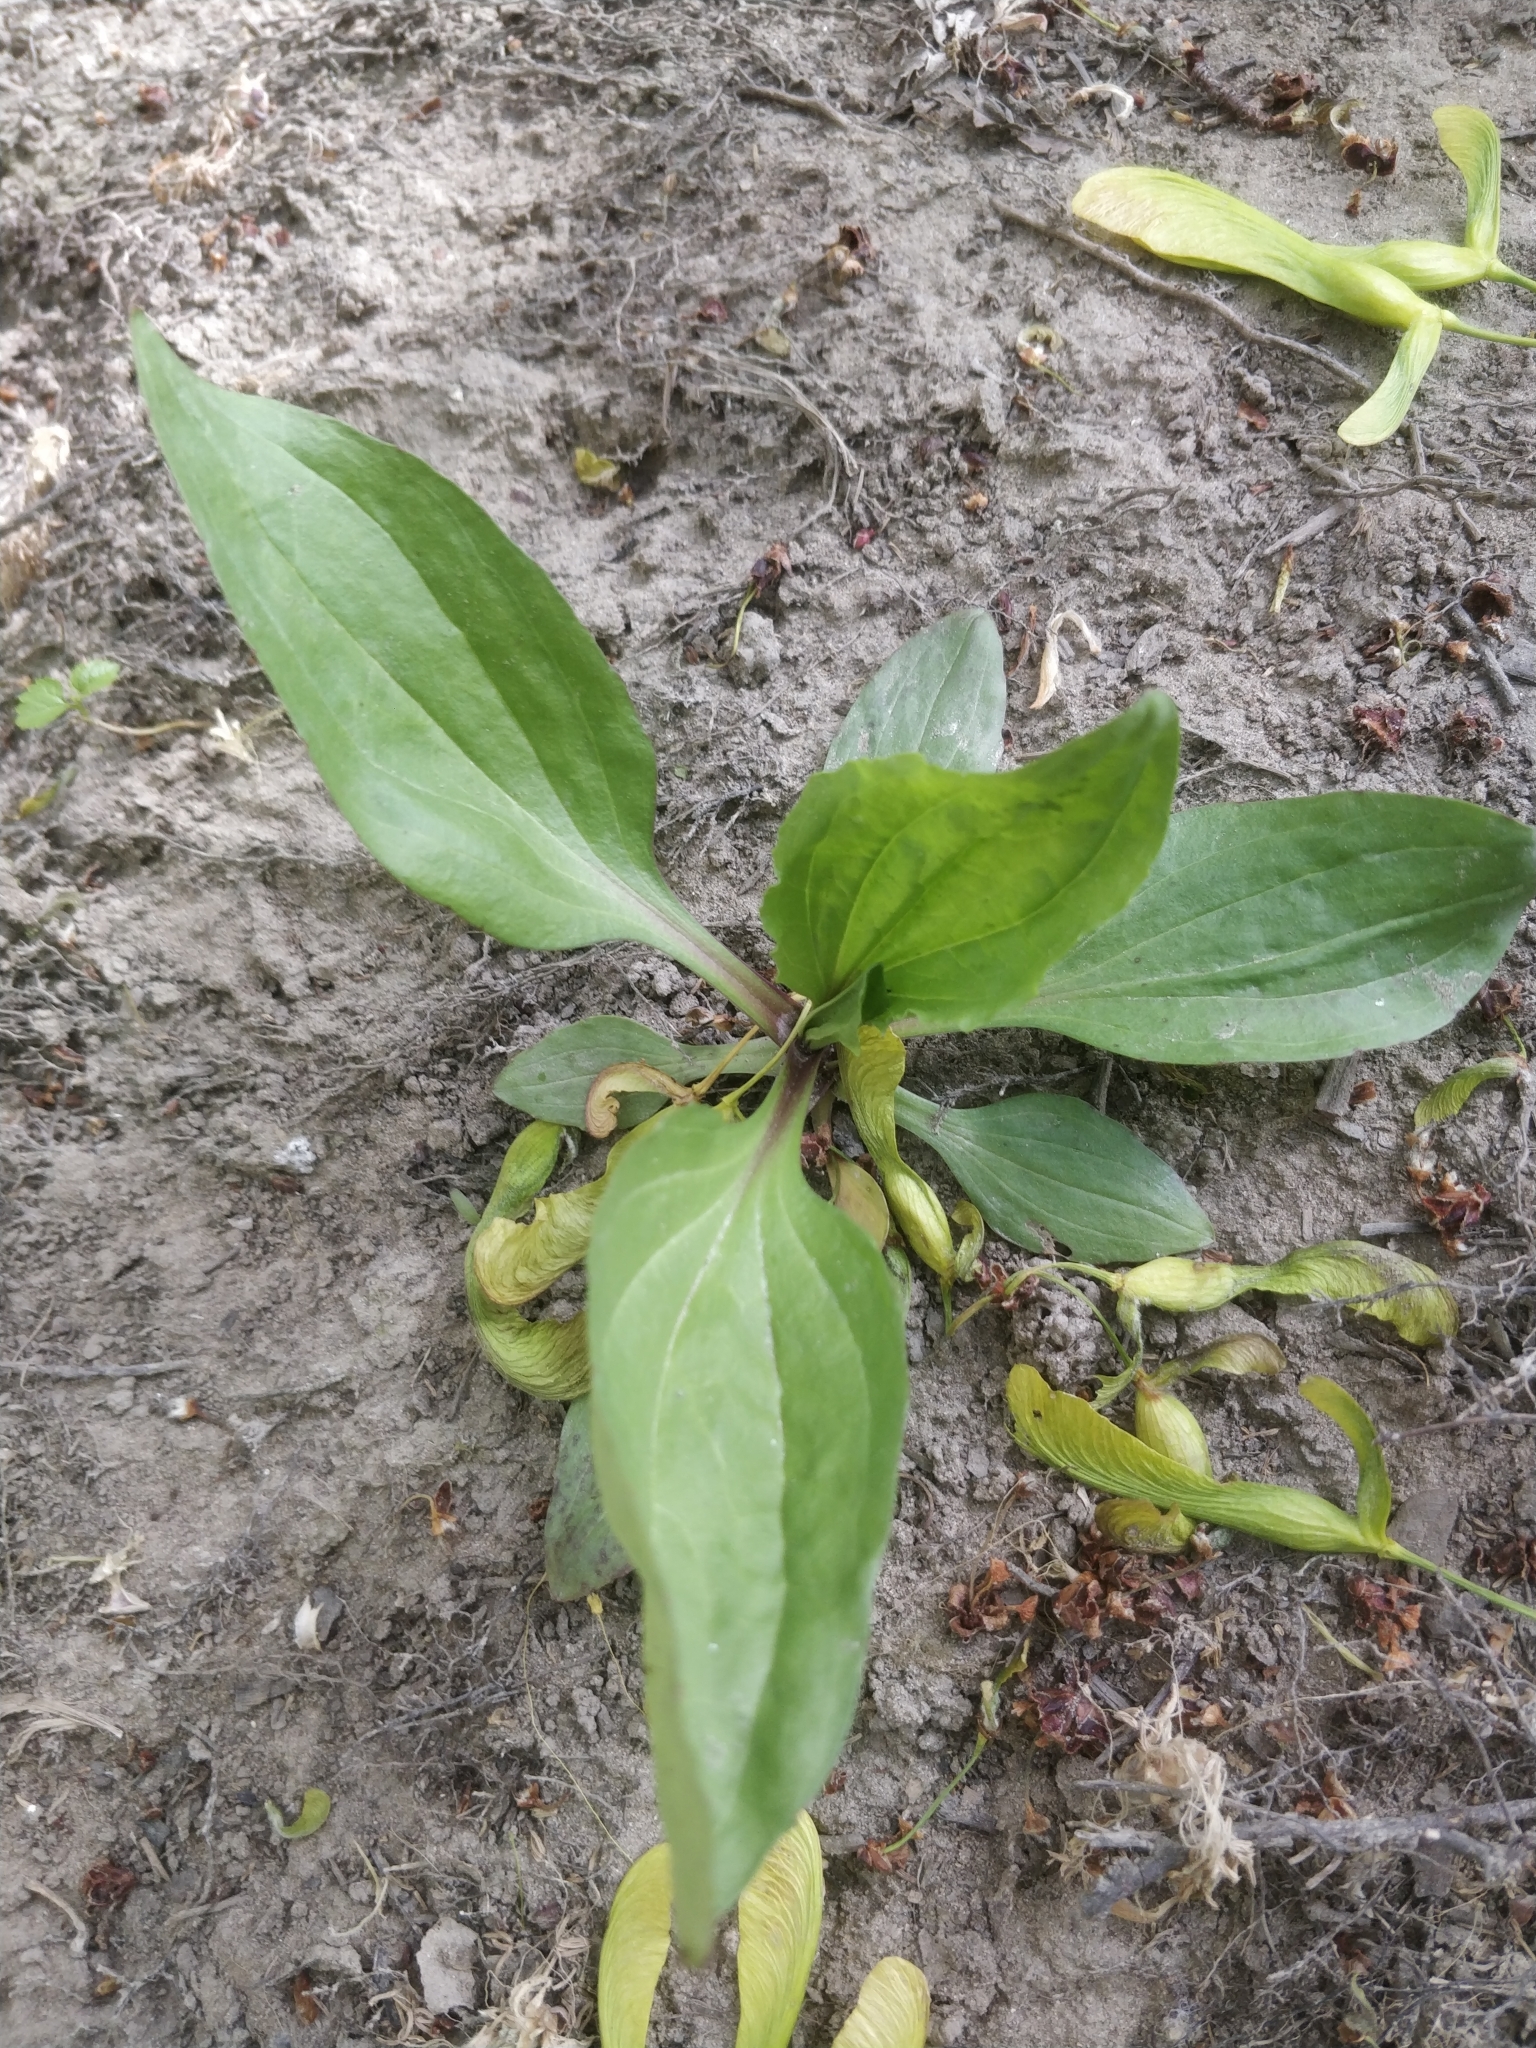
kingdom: Plantae
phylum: Tracheophyta
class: Magnoliopsida
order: Lamiales
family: Plantaginaceae
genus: Plantago
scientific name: Plantago rugelii
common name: American plantain
